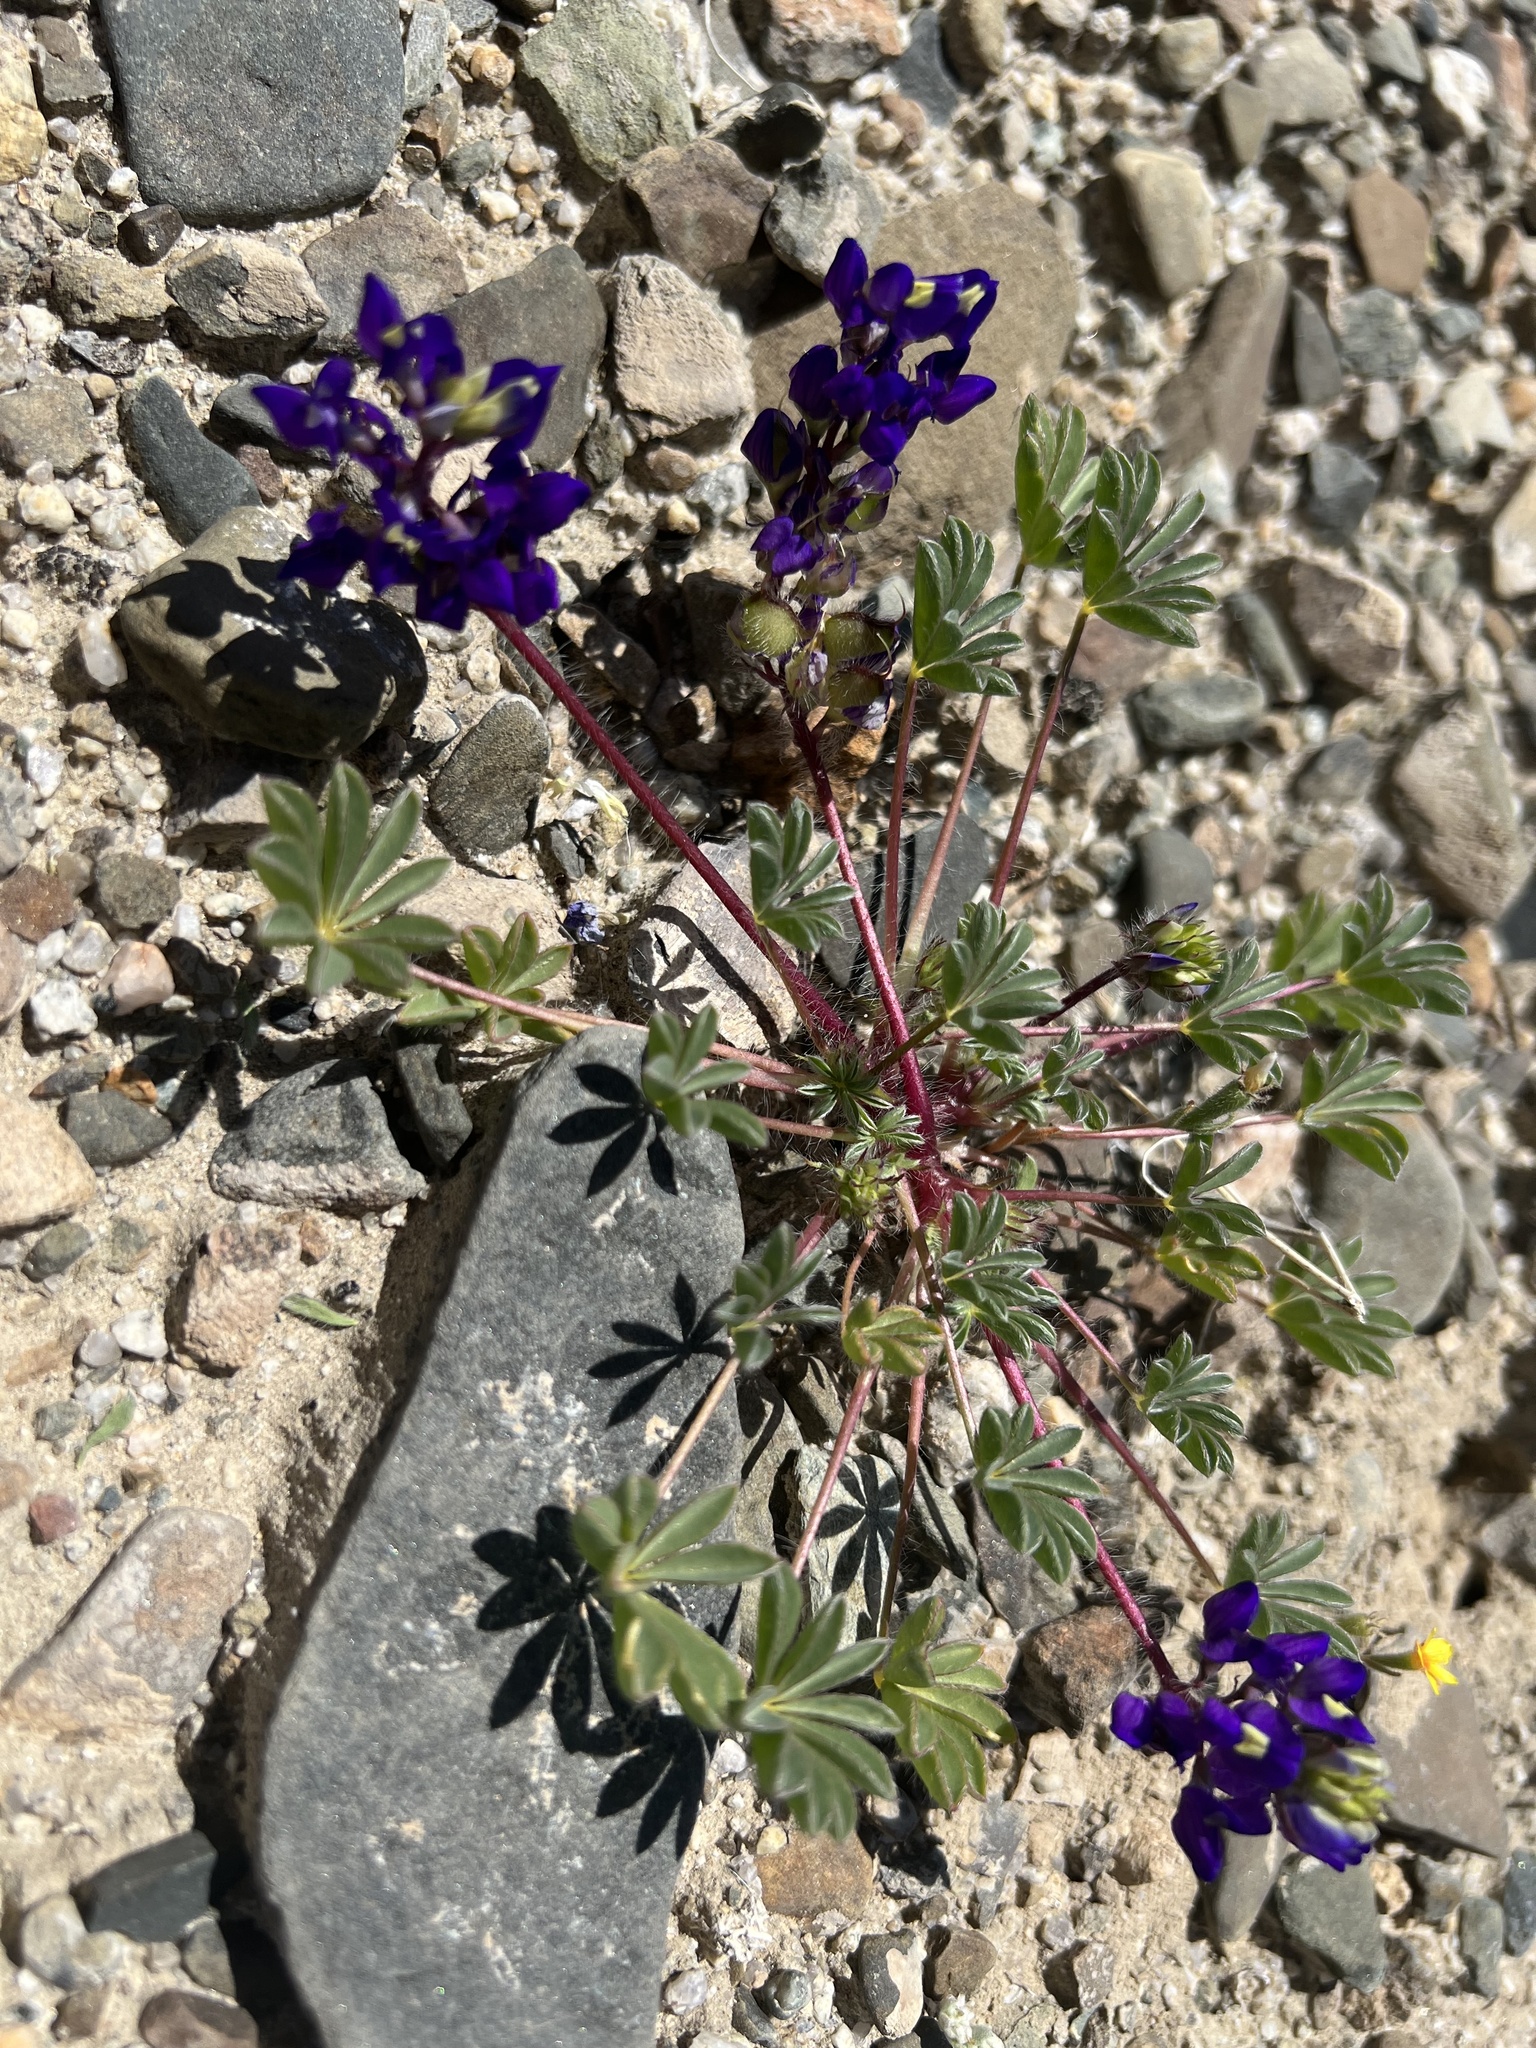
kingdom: Plantae
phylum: Tracheophyta
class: Magnoliopsida
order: Fabales
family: Fabaceae
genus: Lupinus
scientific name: Lupinus flavoculatus
